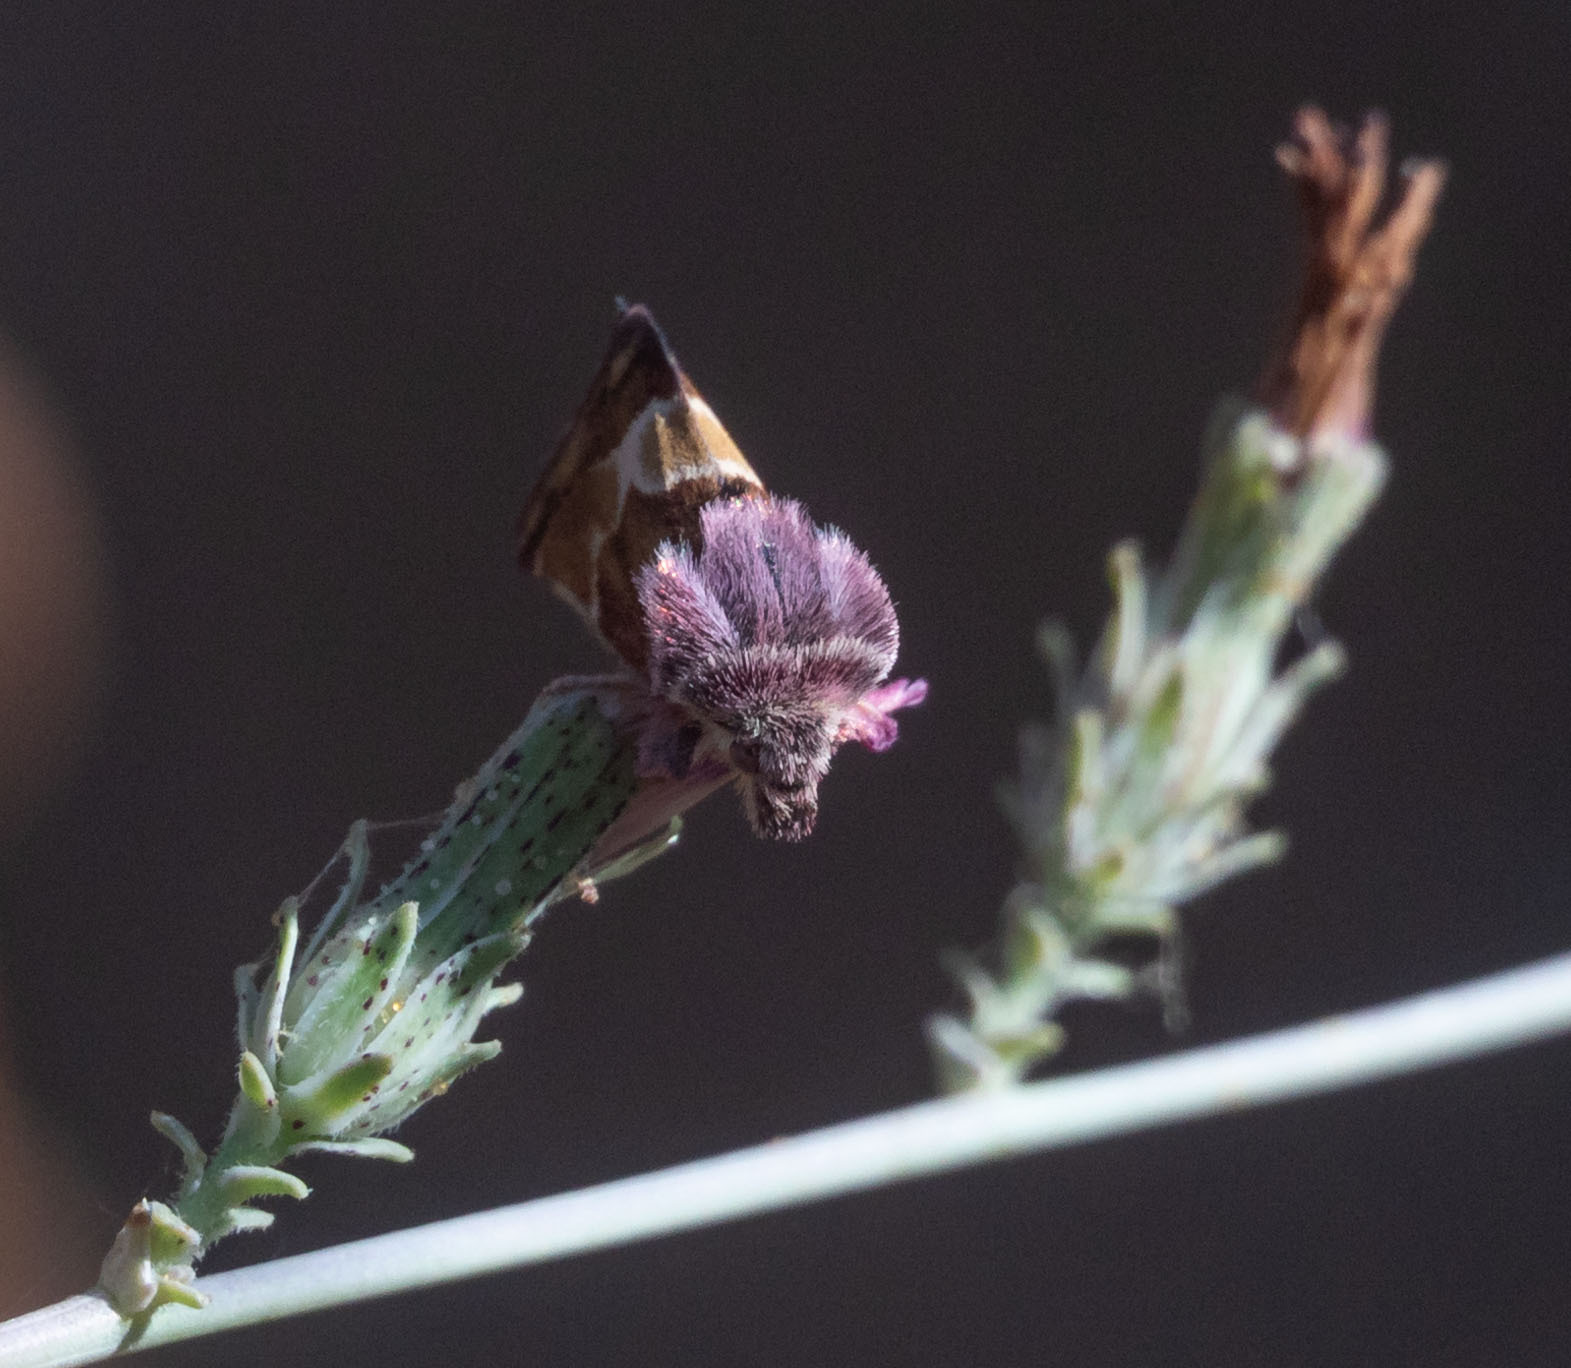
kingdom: Animalia
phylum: Arthropoda
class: Insecta
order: Lepidoptera
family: Noctuidae
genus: Schinia
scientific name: Schinia scarletina
